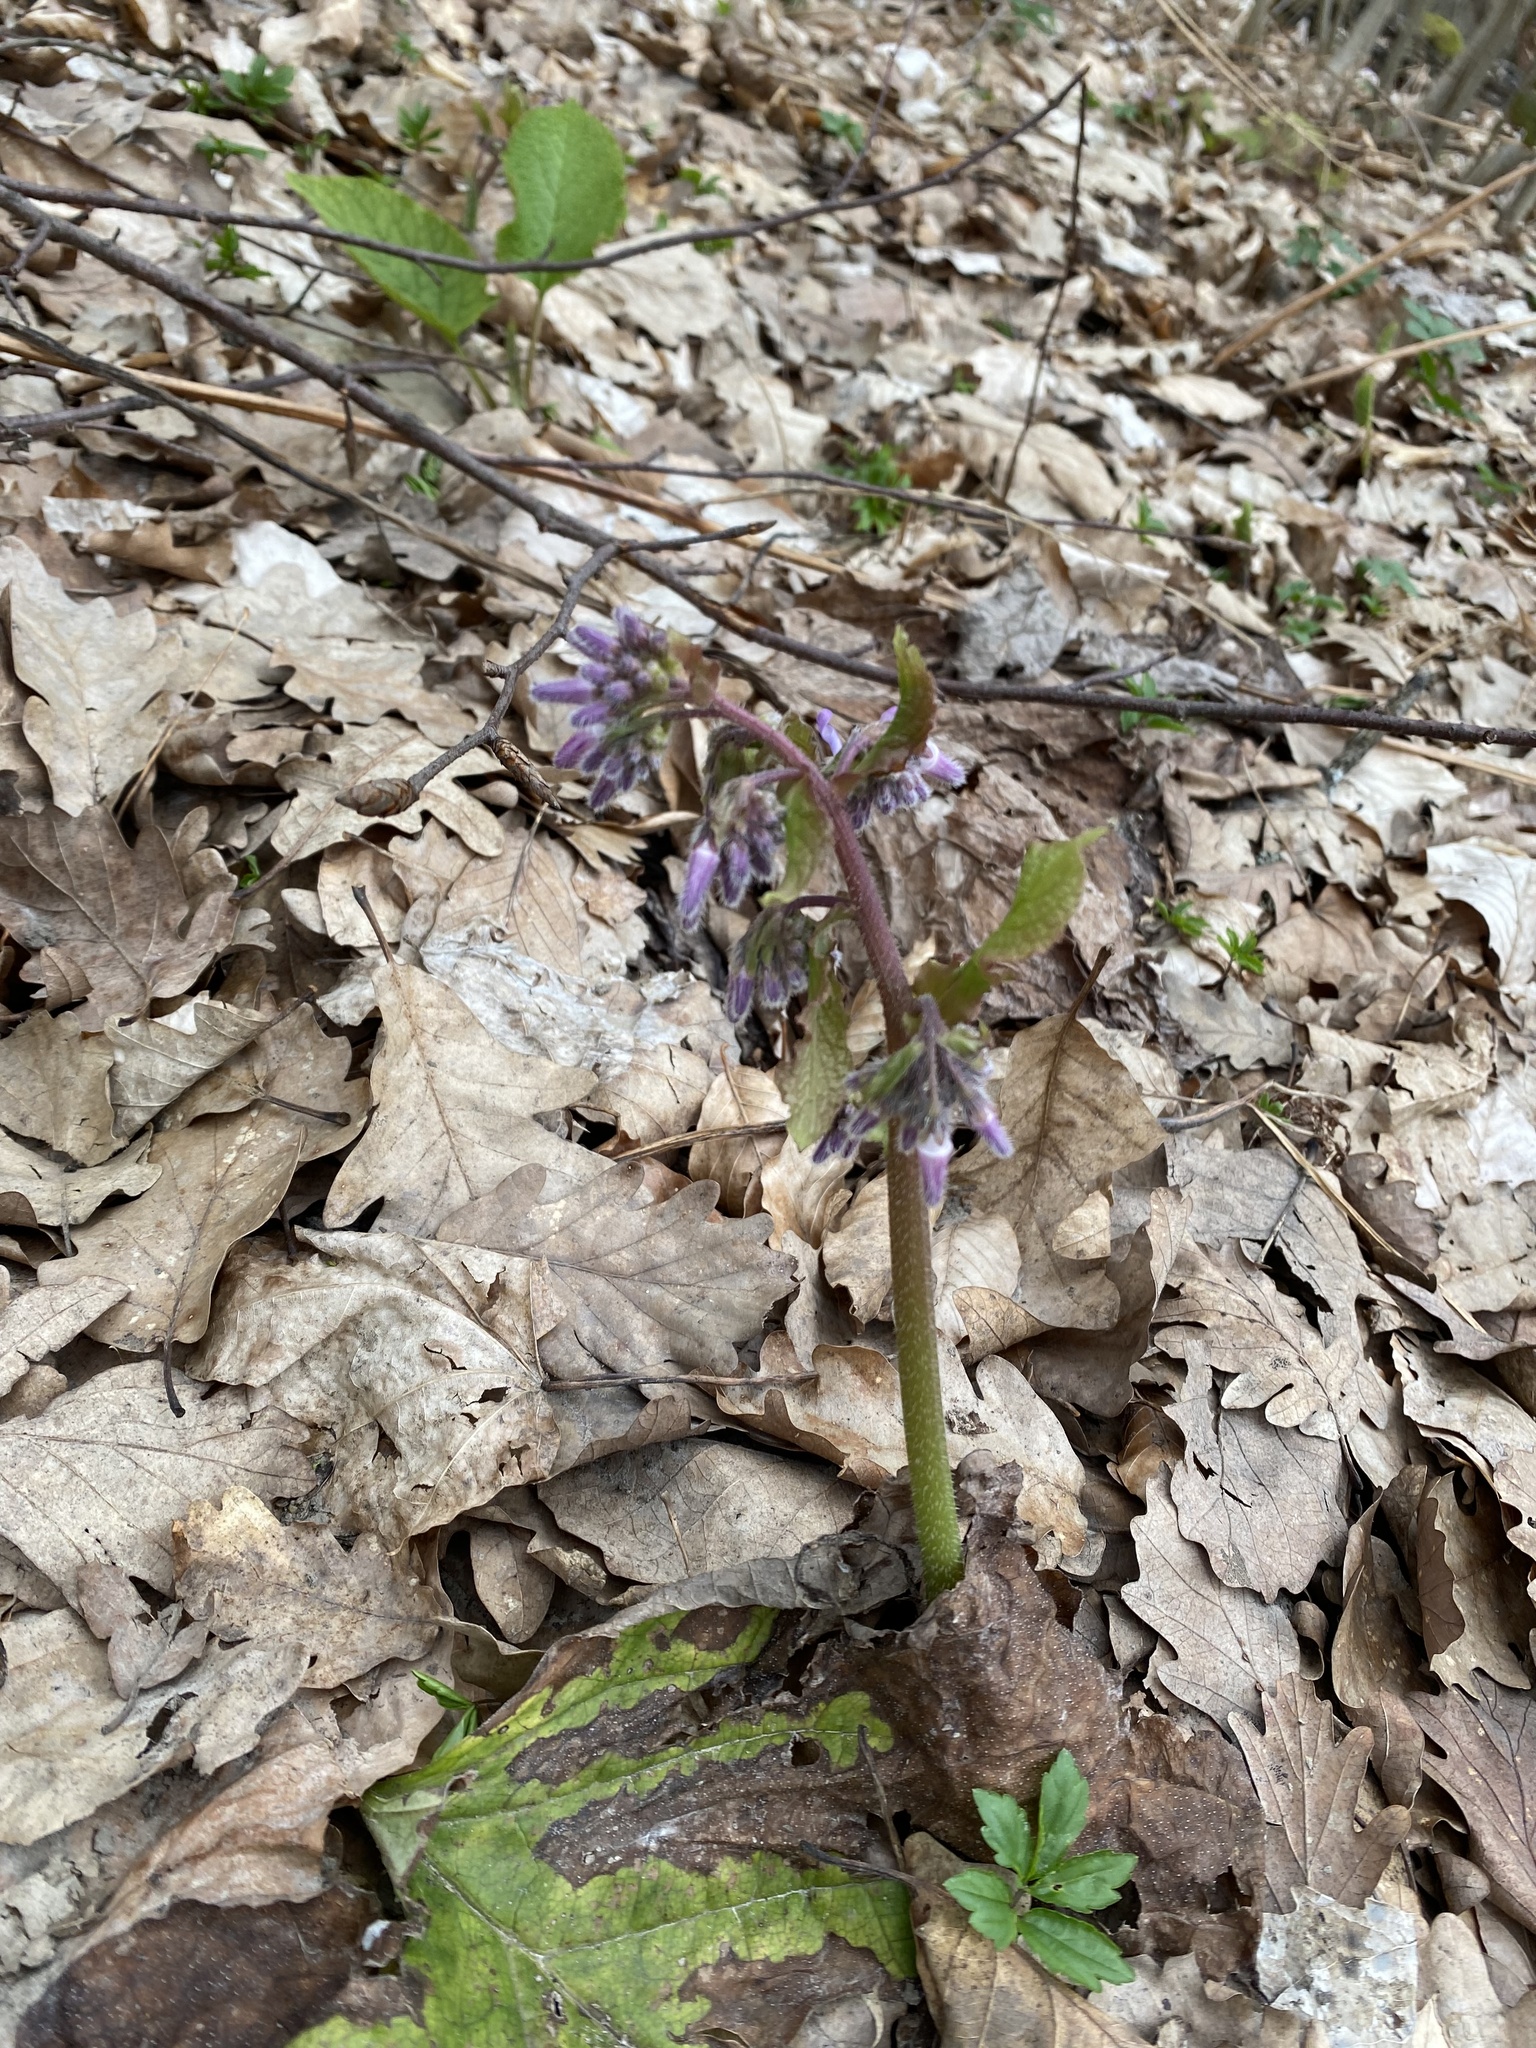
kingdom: Plantae
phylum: Tracheophyta
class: Magnoliopsida
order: Boraginales
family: Boraginaceae
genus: Trachystemon
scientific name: Trachystemon orientale
